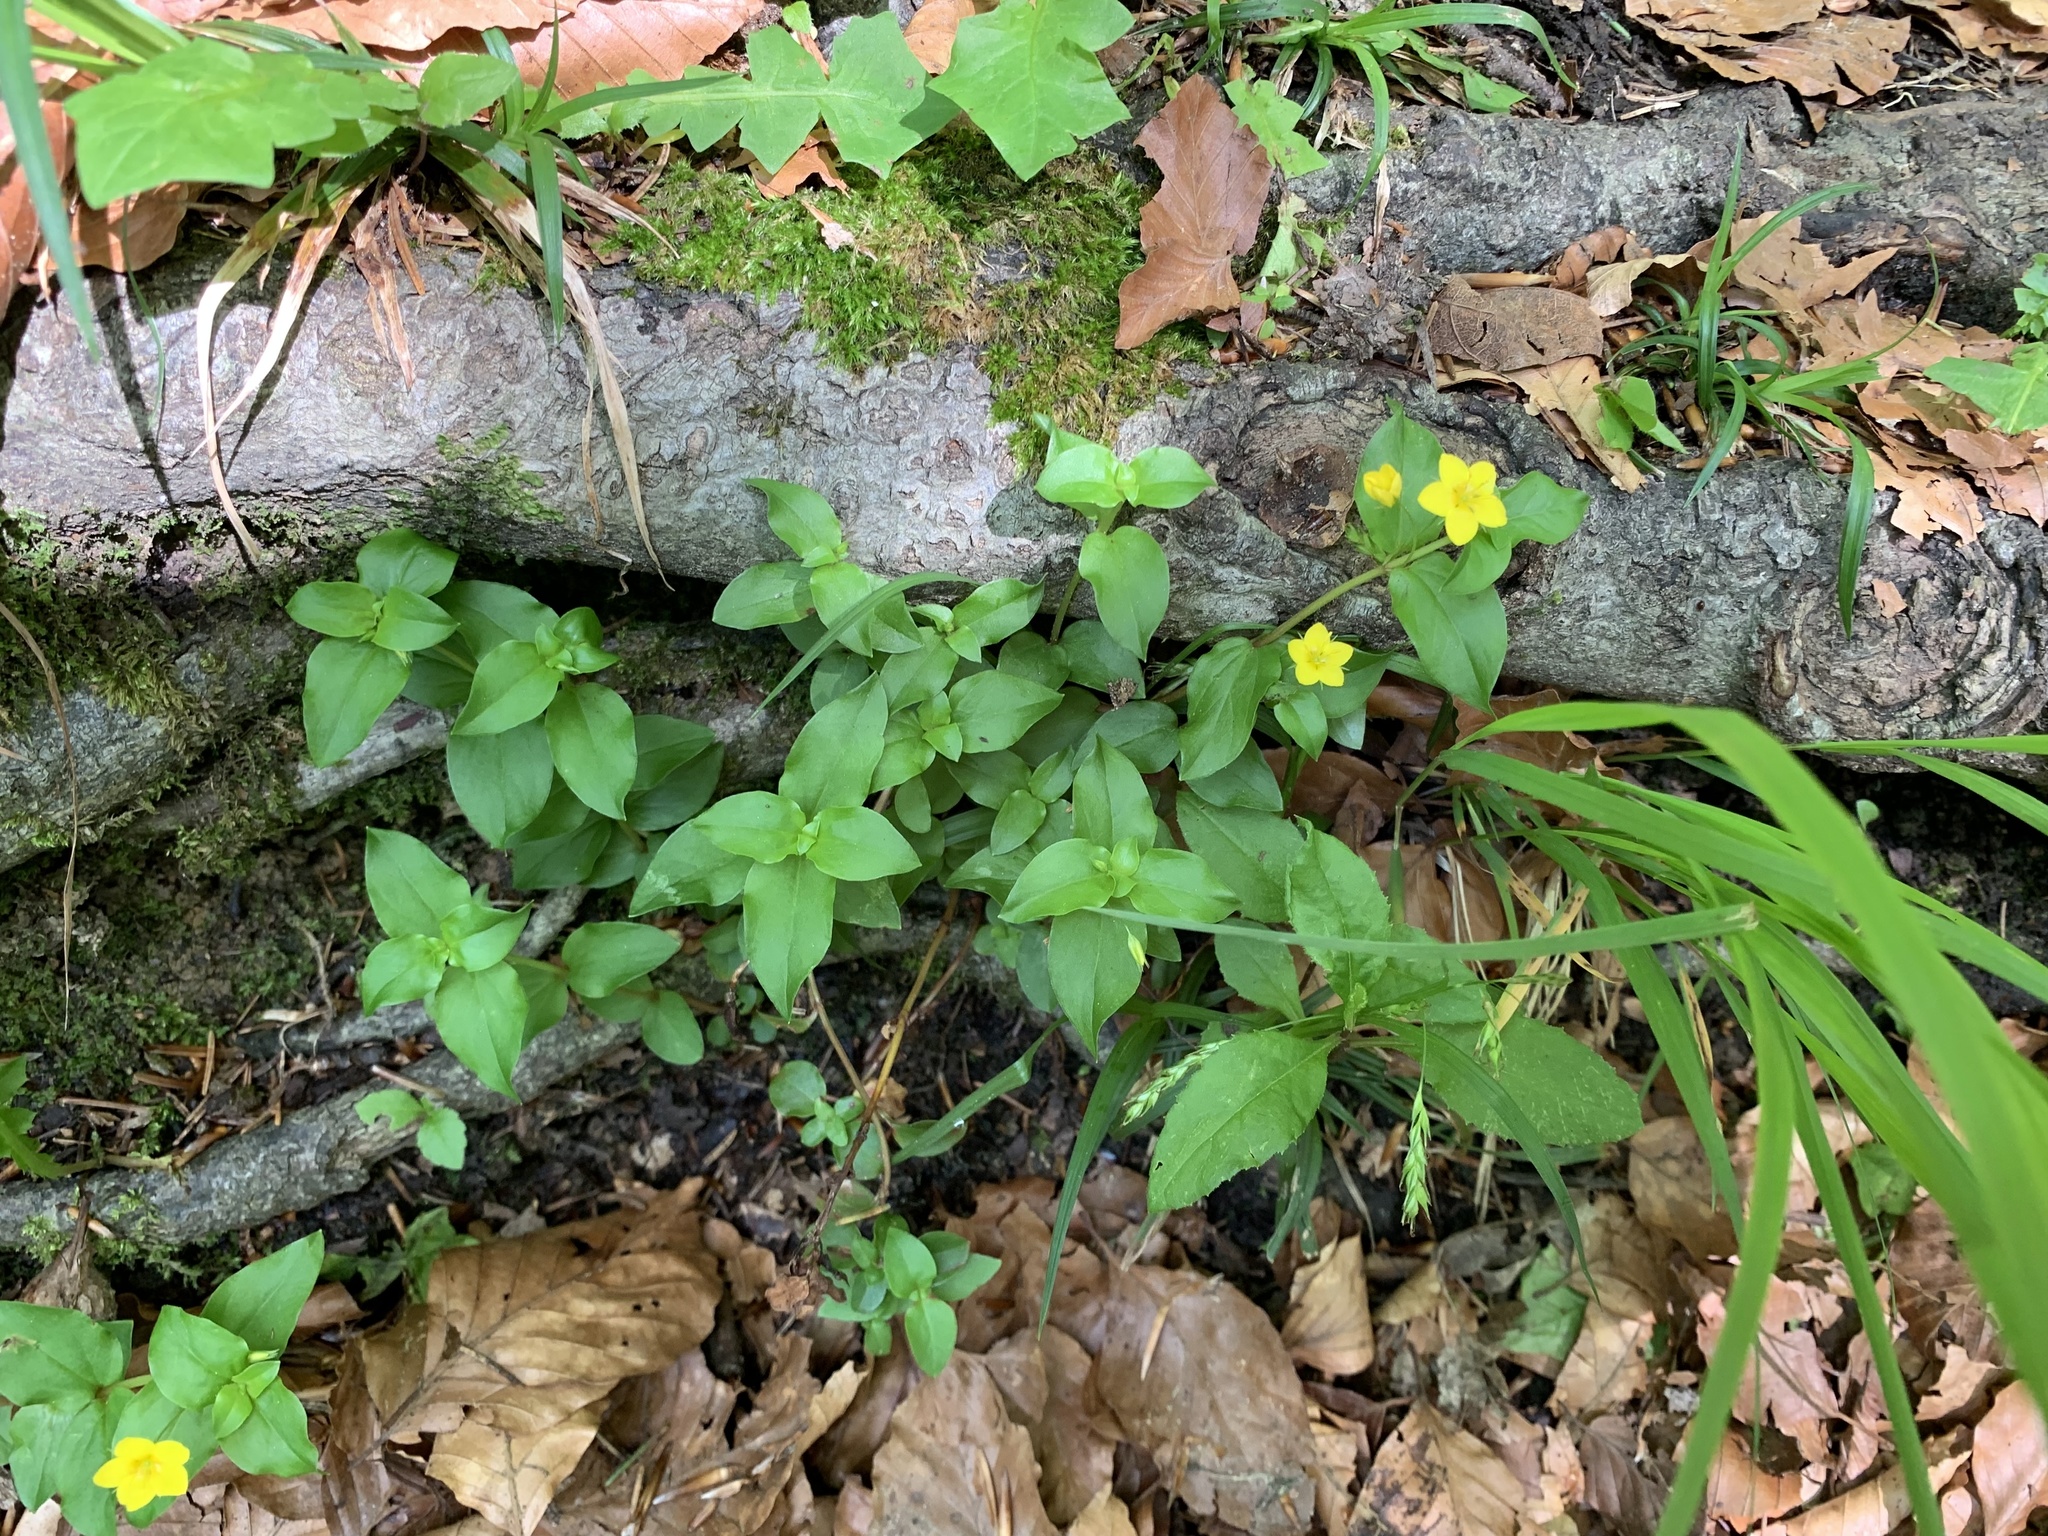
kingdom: Plantae
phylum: Tracheophyta
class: Magnoliopsida
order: Ericales
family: Primulaceae
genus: Lysimachia
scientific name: Lysimachia nemorum
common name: Yellow pimpernel
